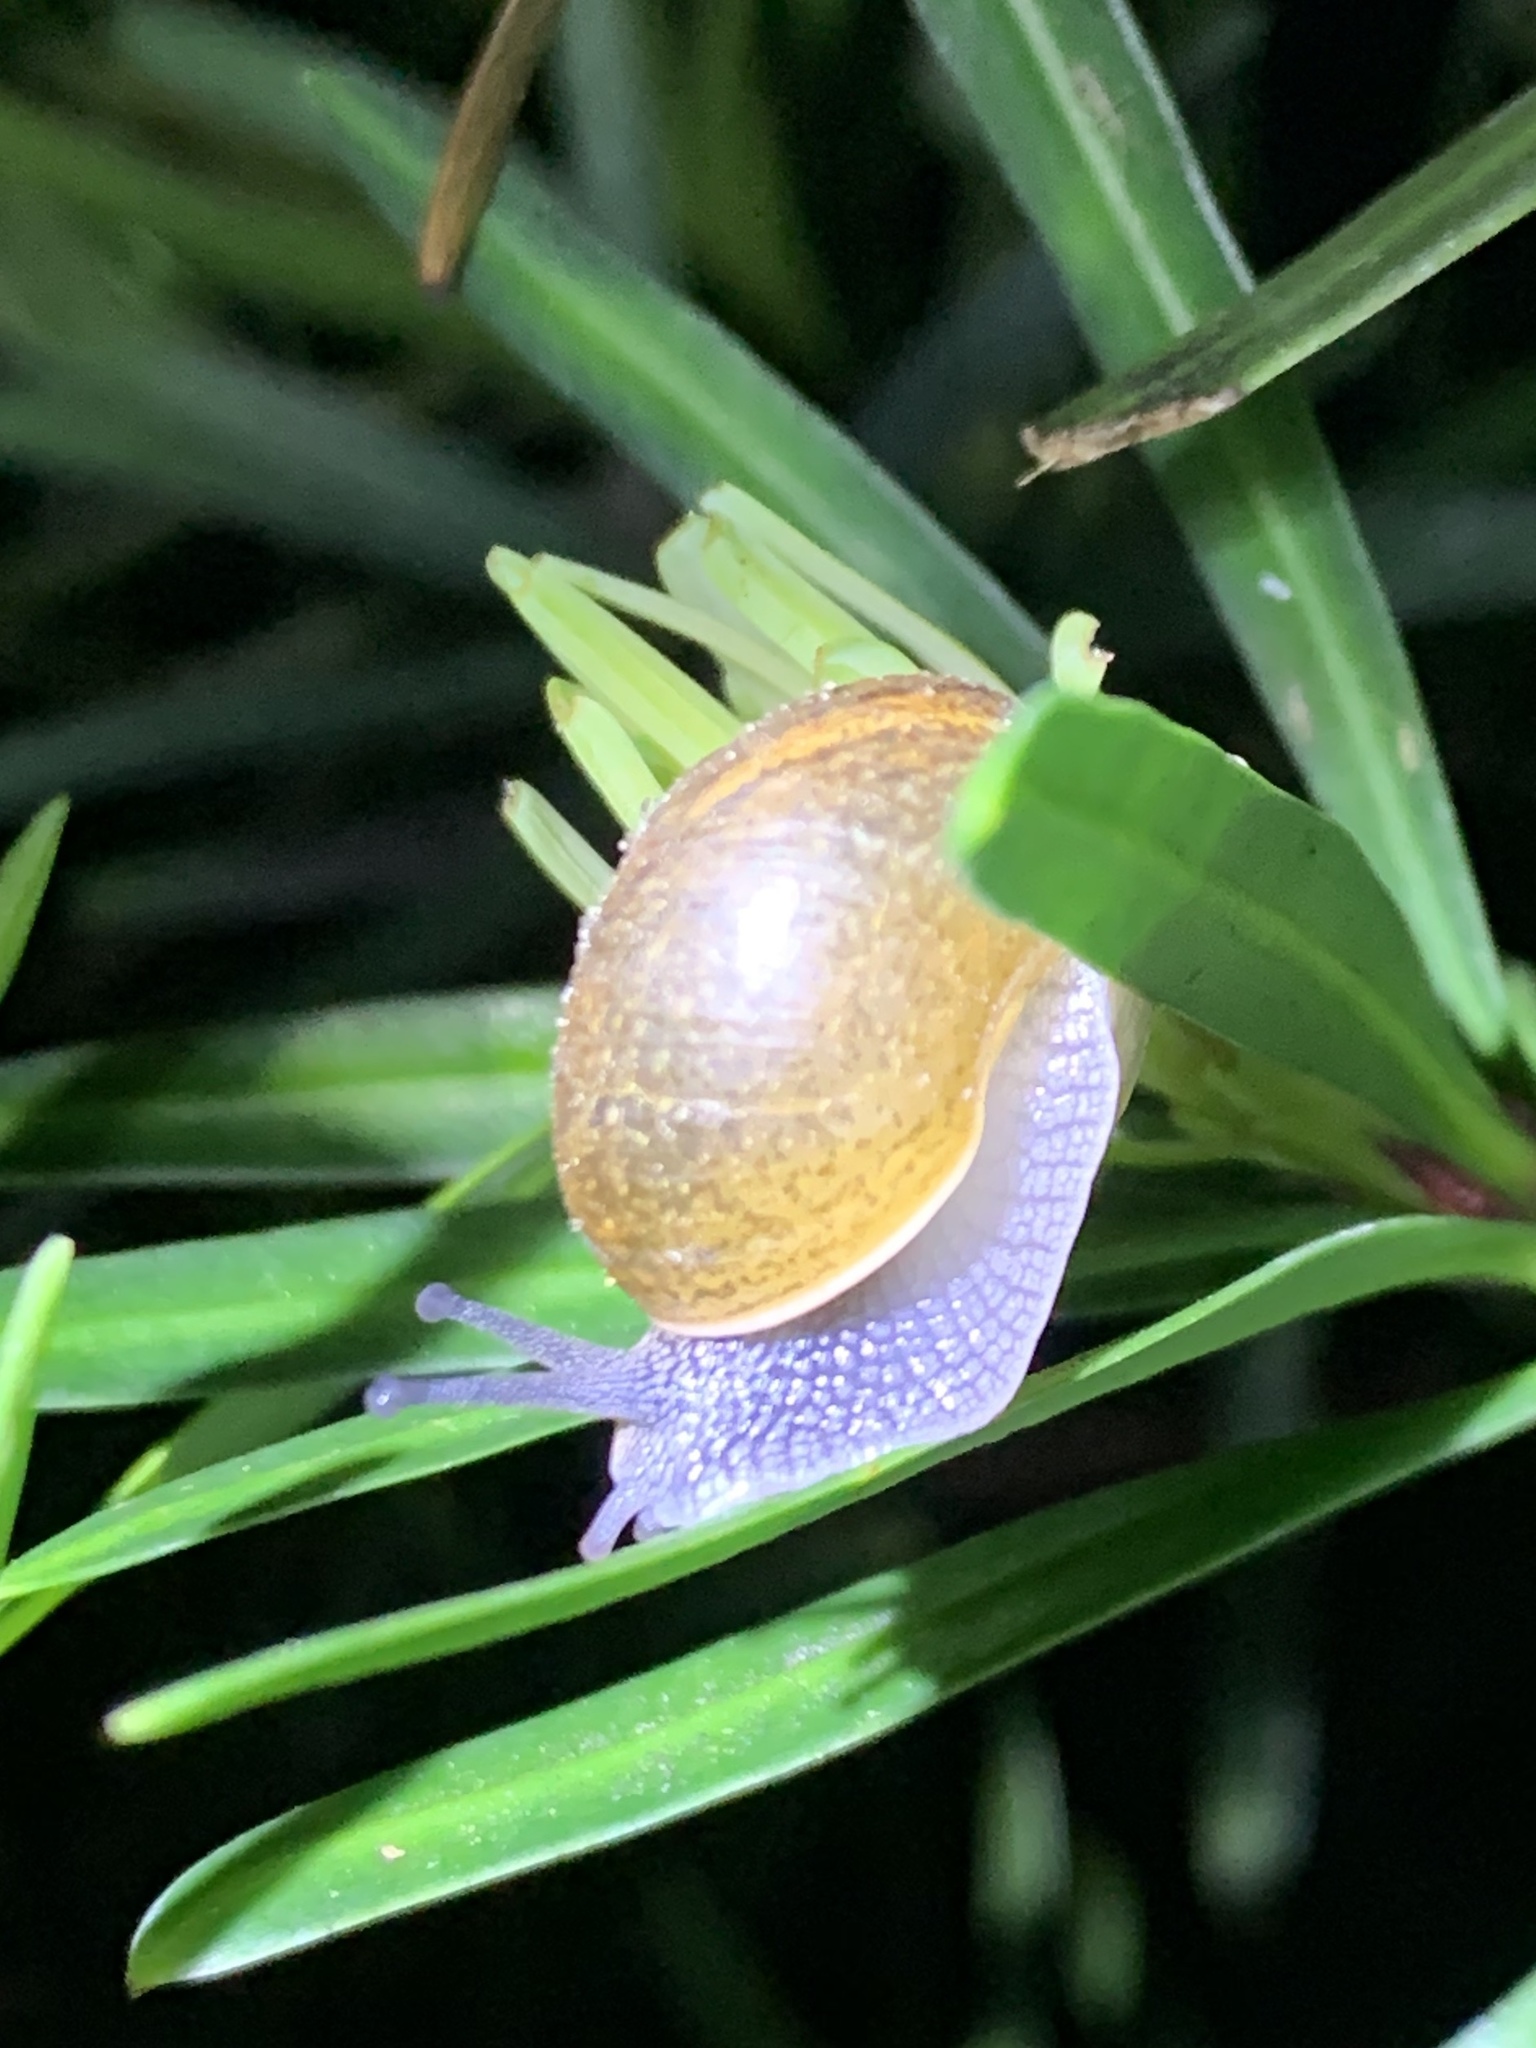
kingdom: Animalia
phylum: Mollusca
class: Gastropoda
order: Stylommatophora
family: Zachrysiidae
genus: Zachrysia
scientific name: Zachrysia provisoria
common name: Garden zachrysia
